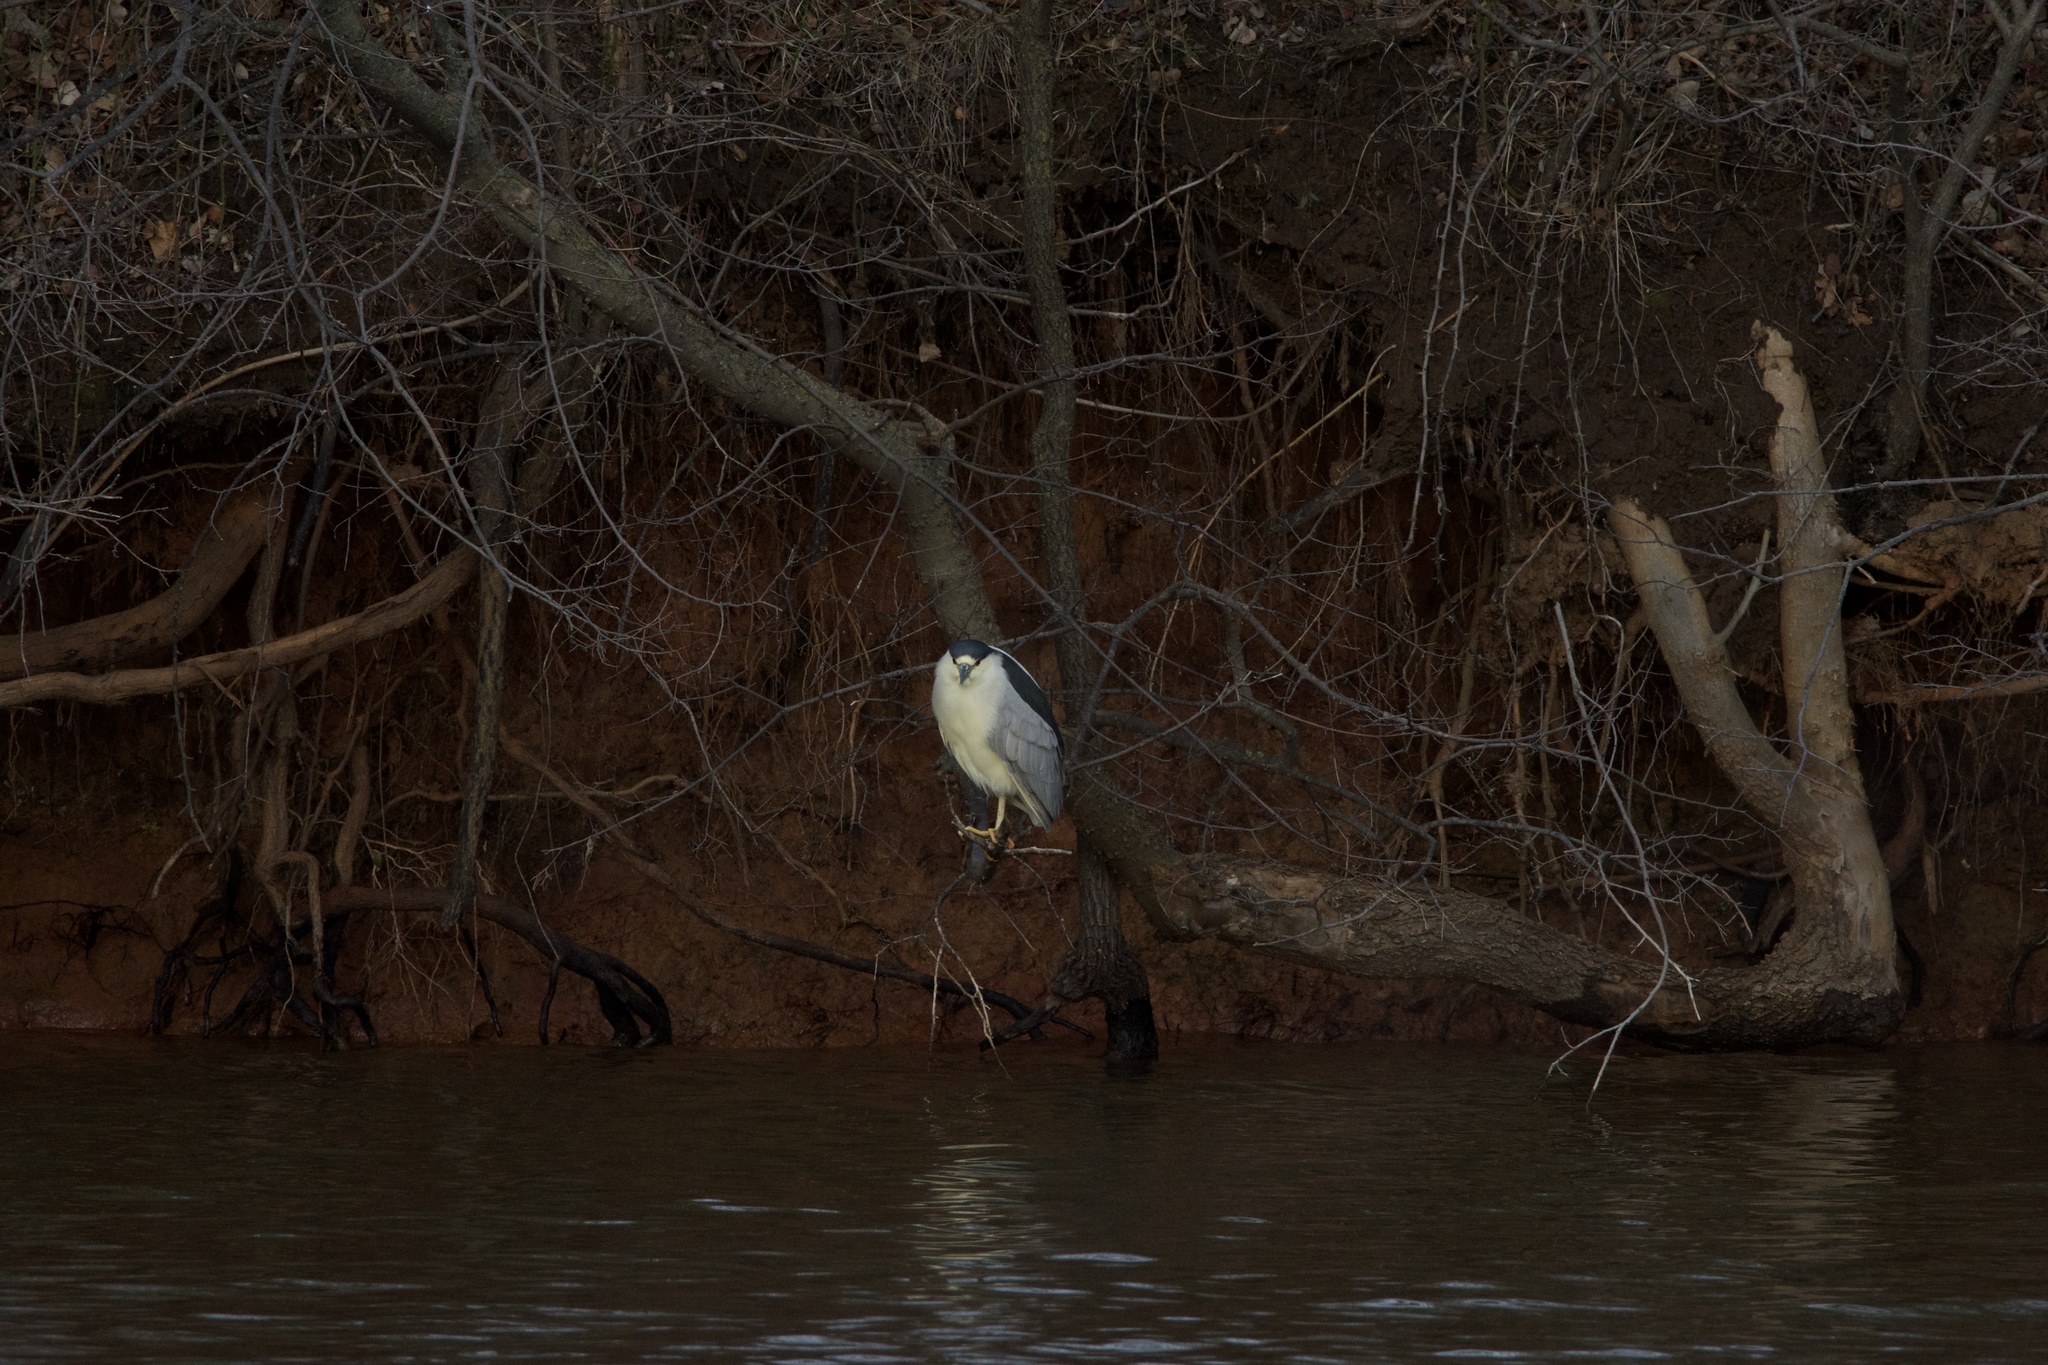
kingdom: Animalia
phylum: Chordata
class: Aves
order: Pelecaniformes
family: Ardeidae
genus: Nycticorax
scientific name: Nycticorax nycticorax
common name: Black-crowned night heron
